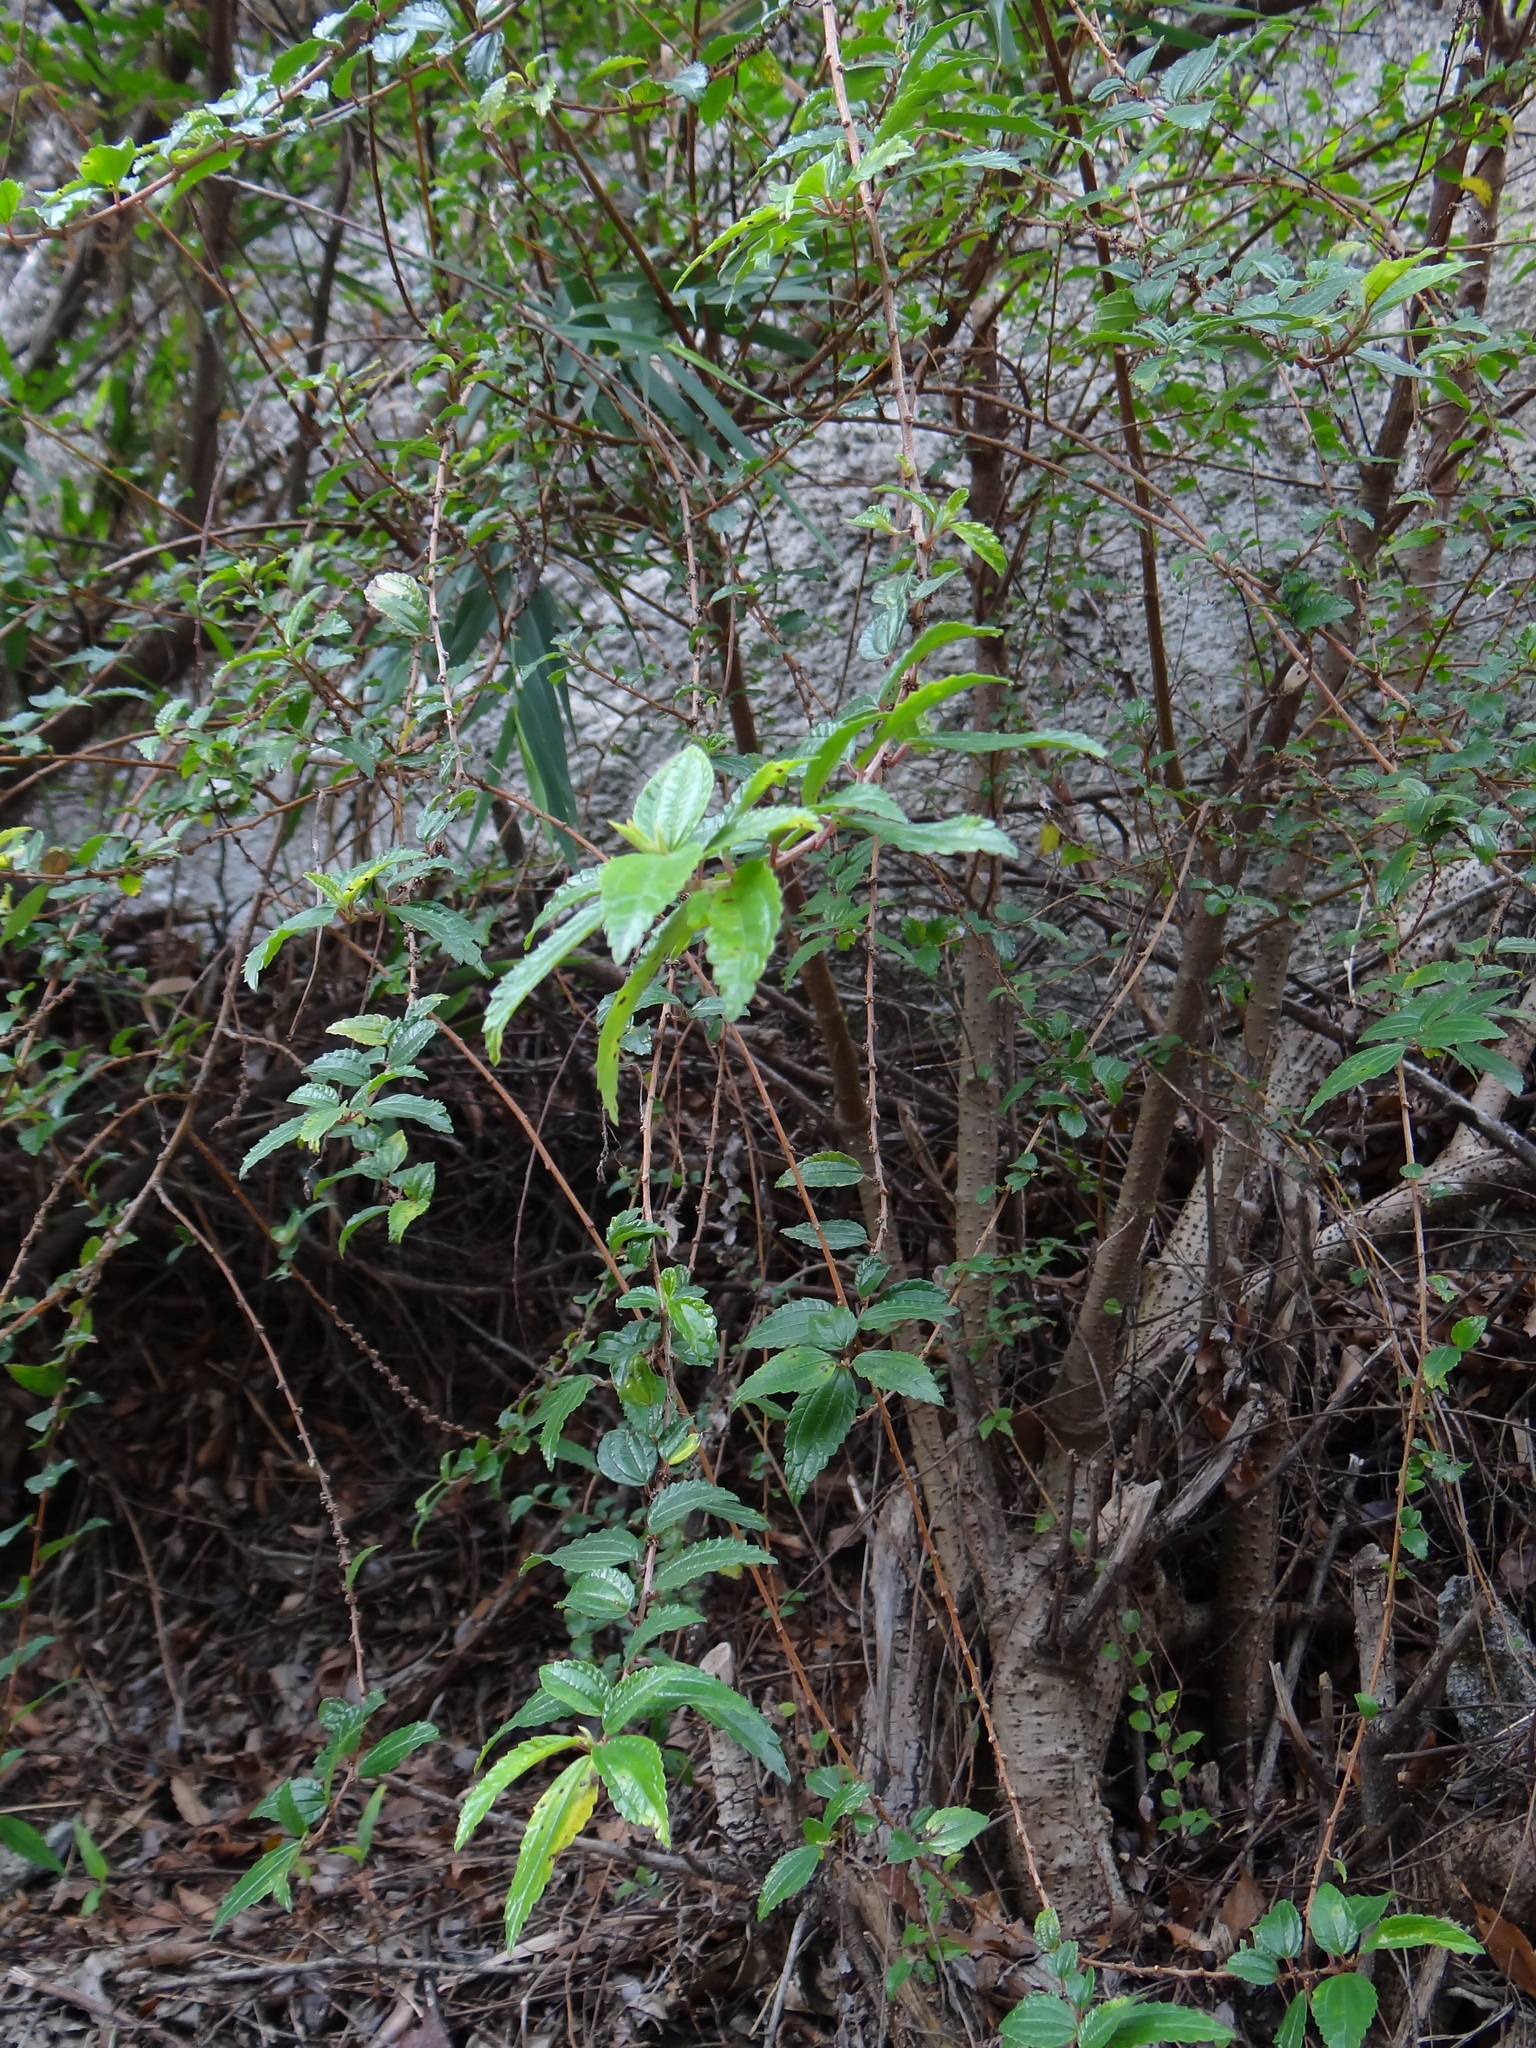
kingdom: Plantae
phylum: Tracheophyta
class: Magnoliopsida
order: Rosales
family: Urticaceae
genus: Pouzolzia
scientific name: Pouzolzia sanguinea
